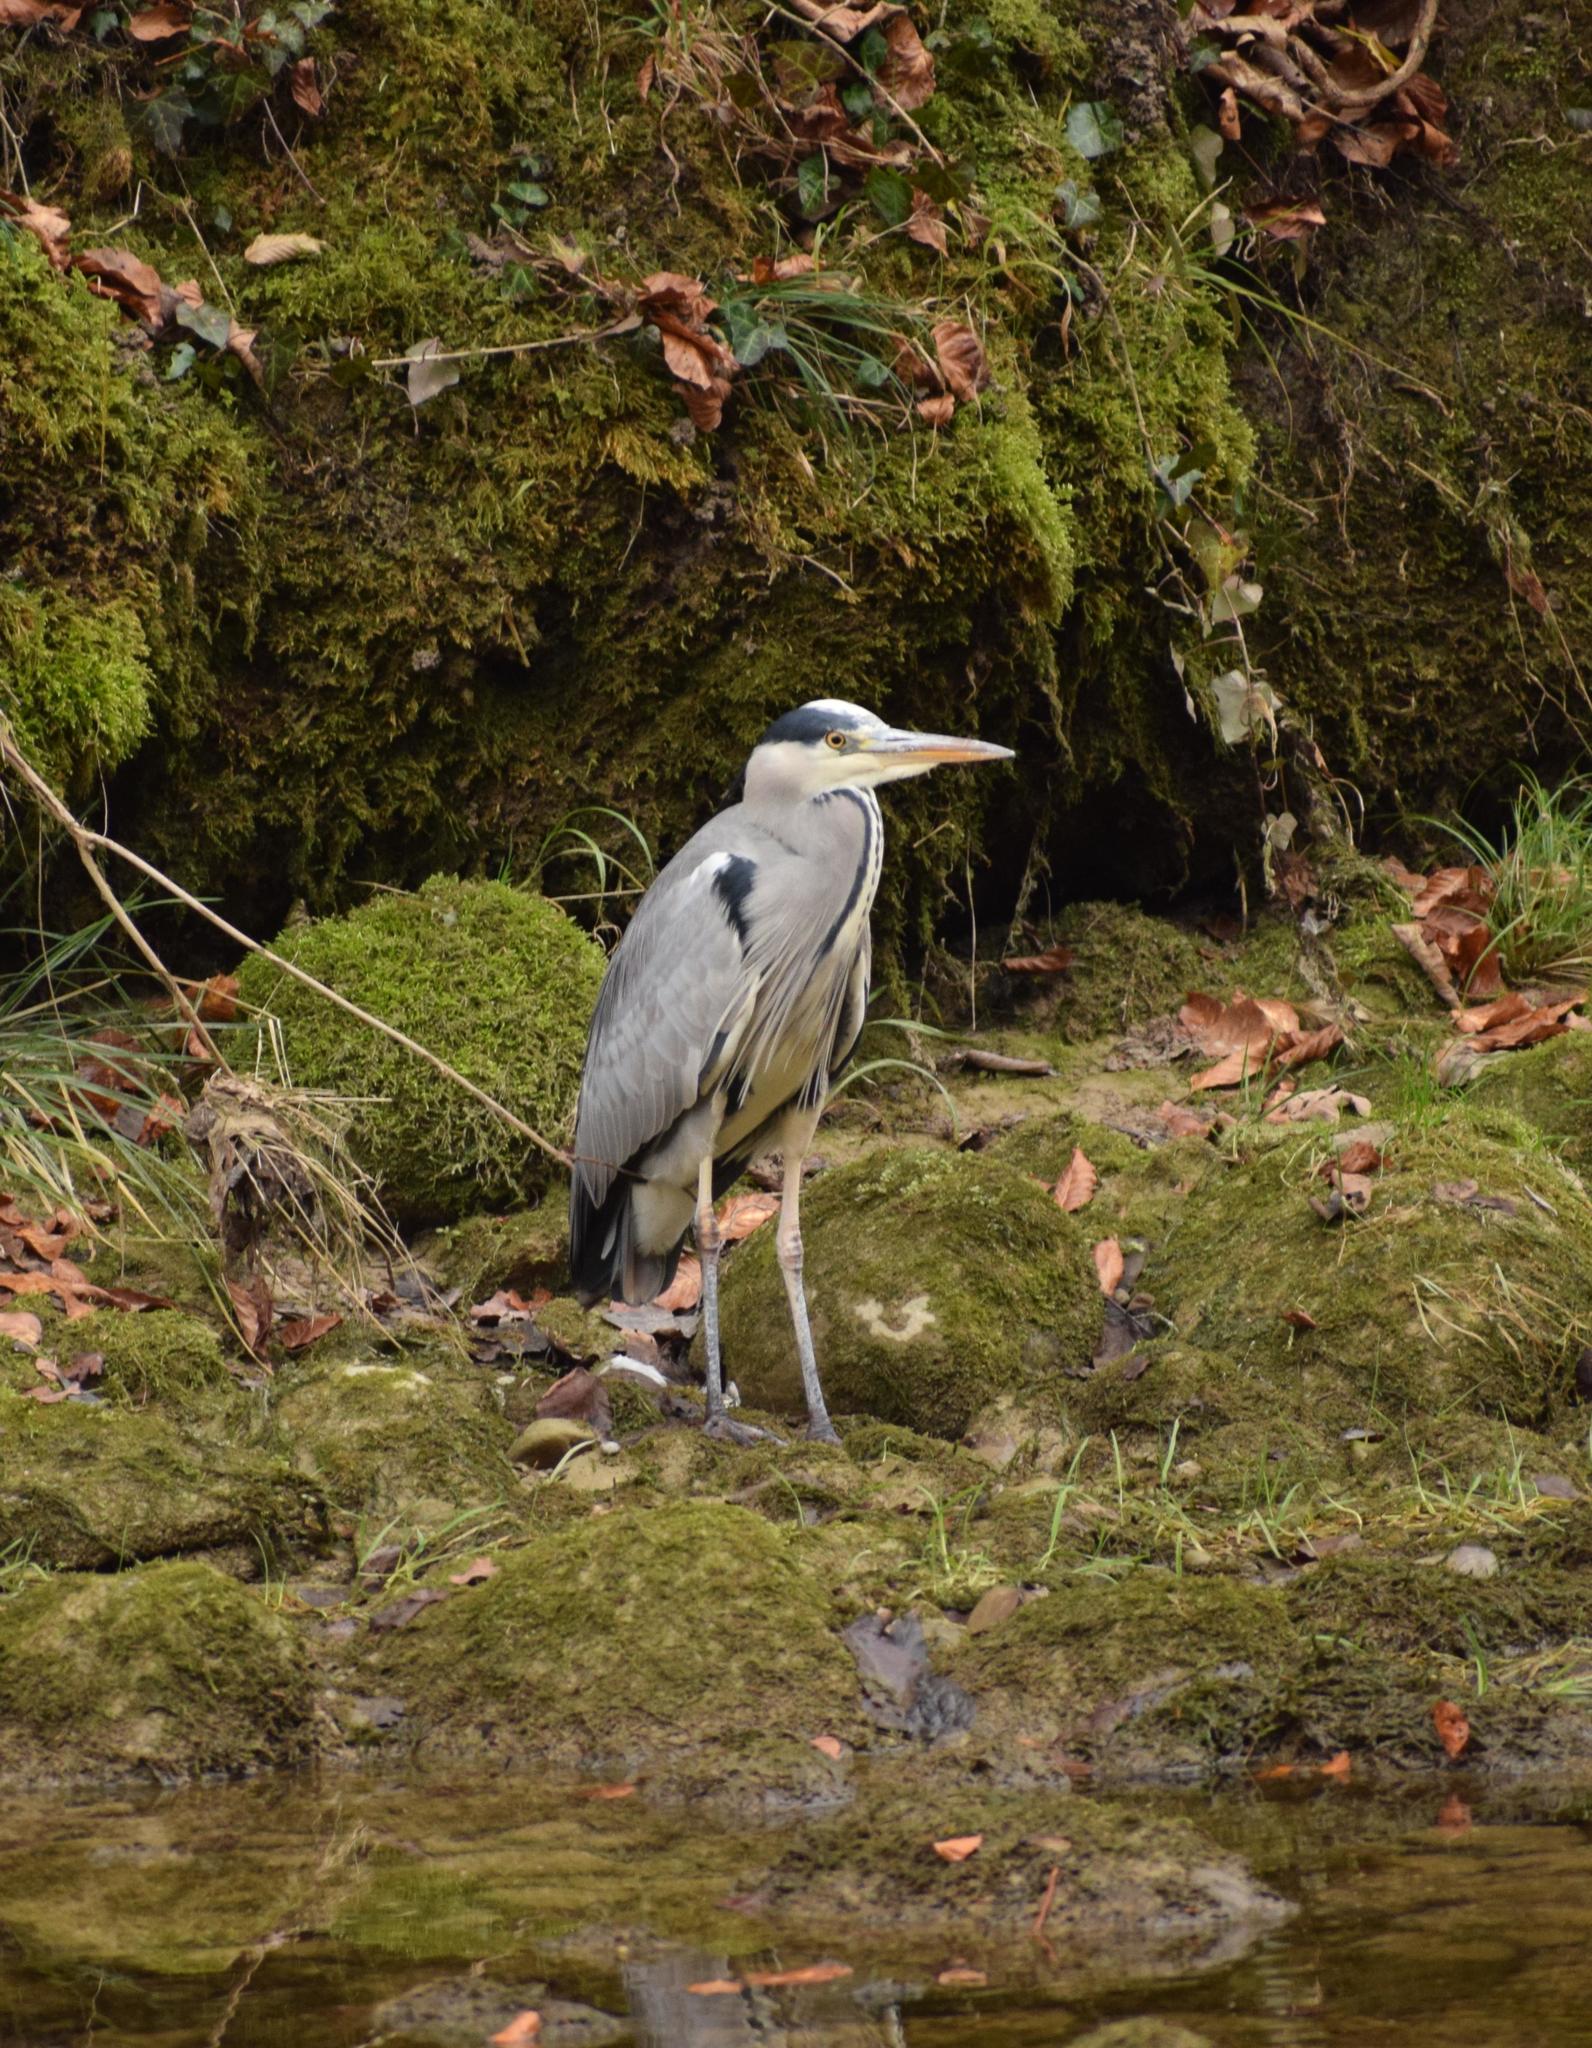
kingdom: Animalia
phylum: Chordata
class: Aves
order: Pelecaniformes
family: Ardeidae
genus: Ardea
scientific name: Ardea cinerea
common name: Grey heron
